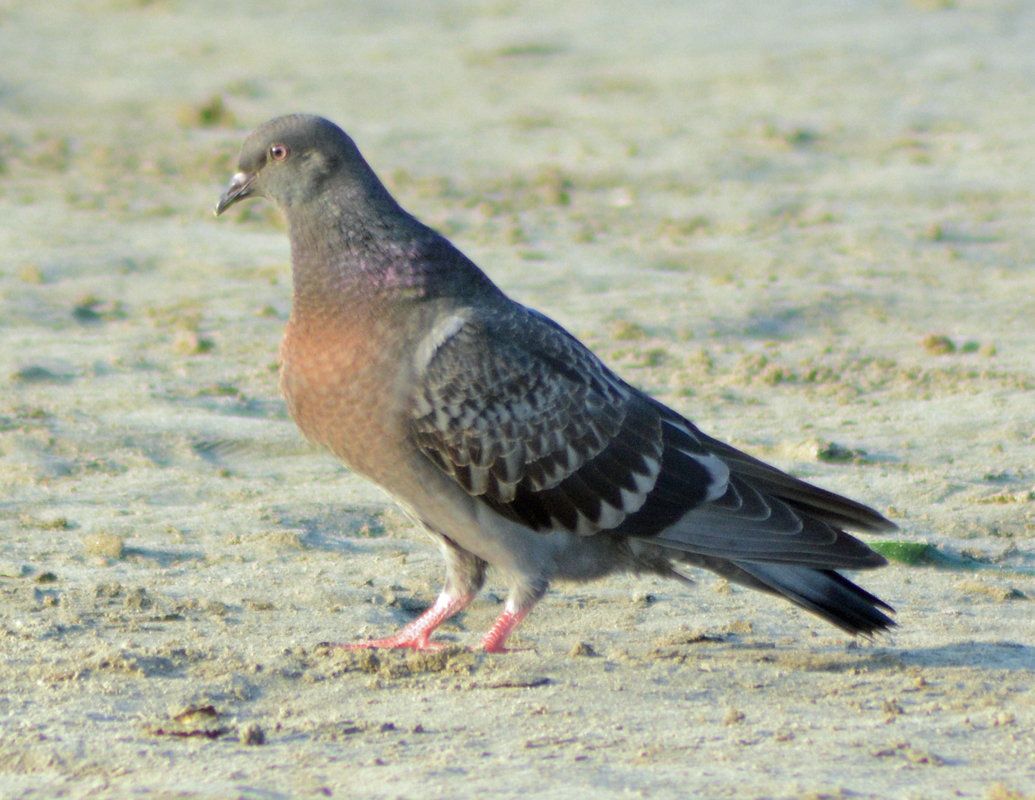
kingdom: Animalia
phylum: Chordata
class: Aves
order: Columbiformes
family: Columbidae
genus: Columba
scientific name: Columba livia
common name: Rock pigeon
